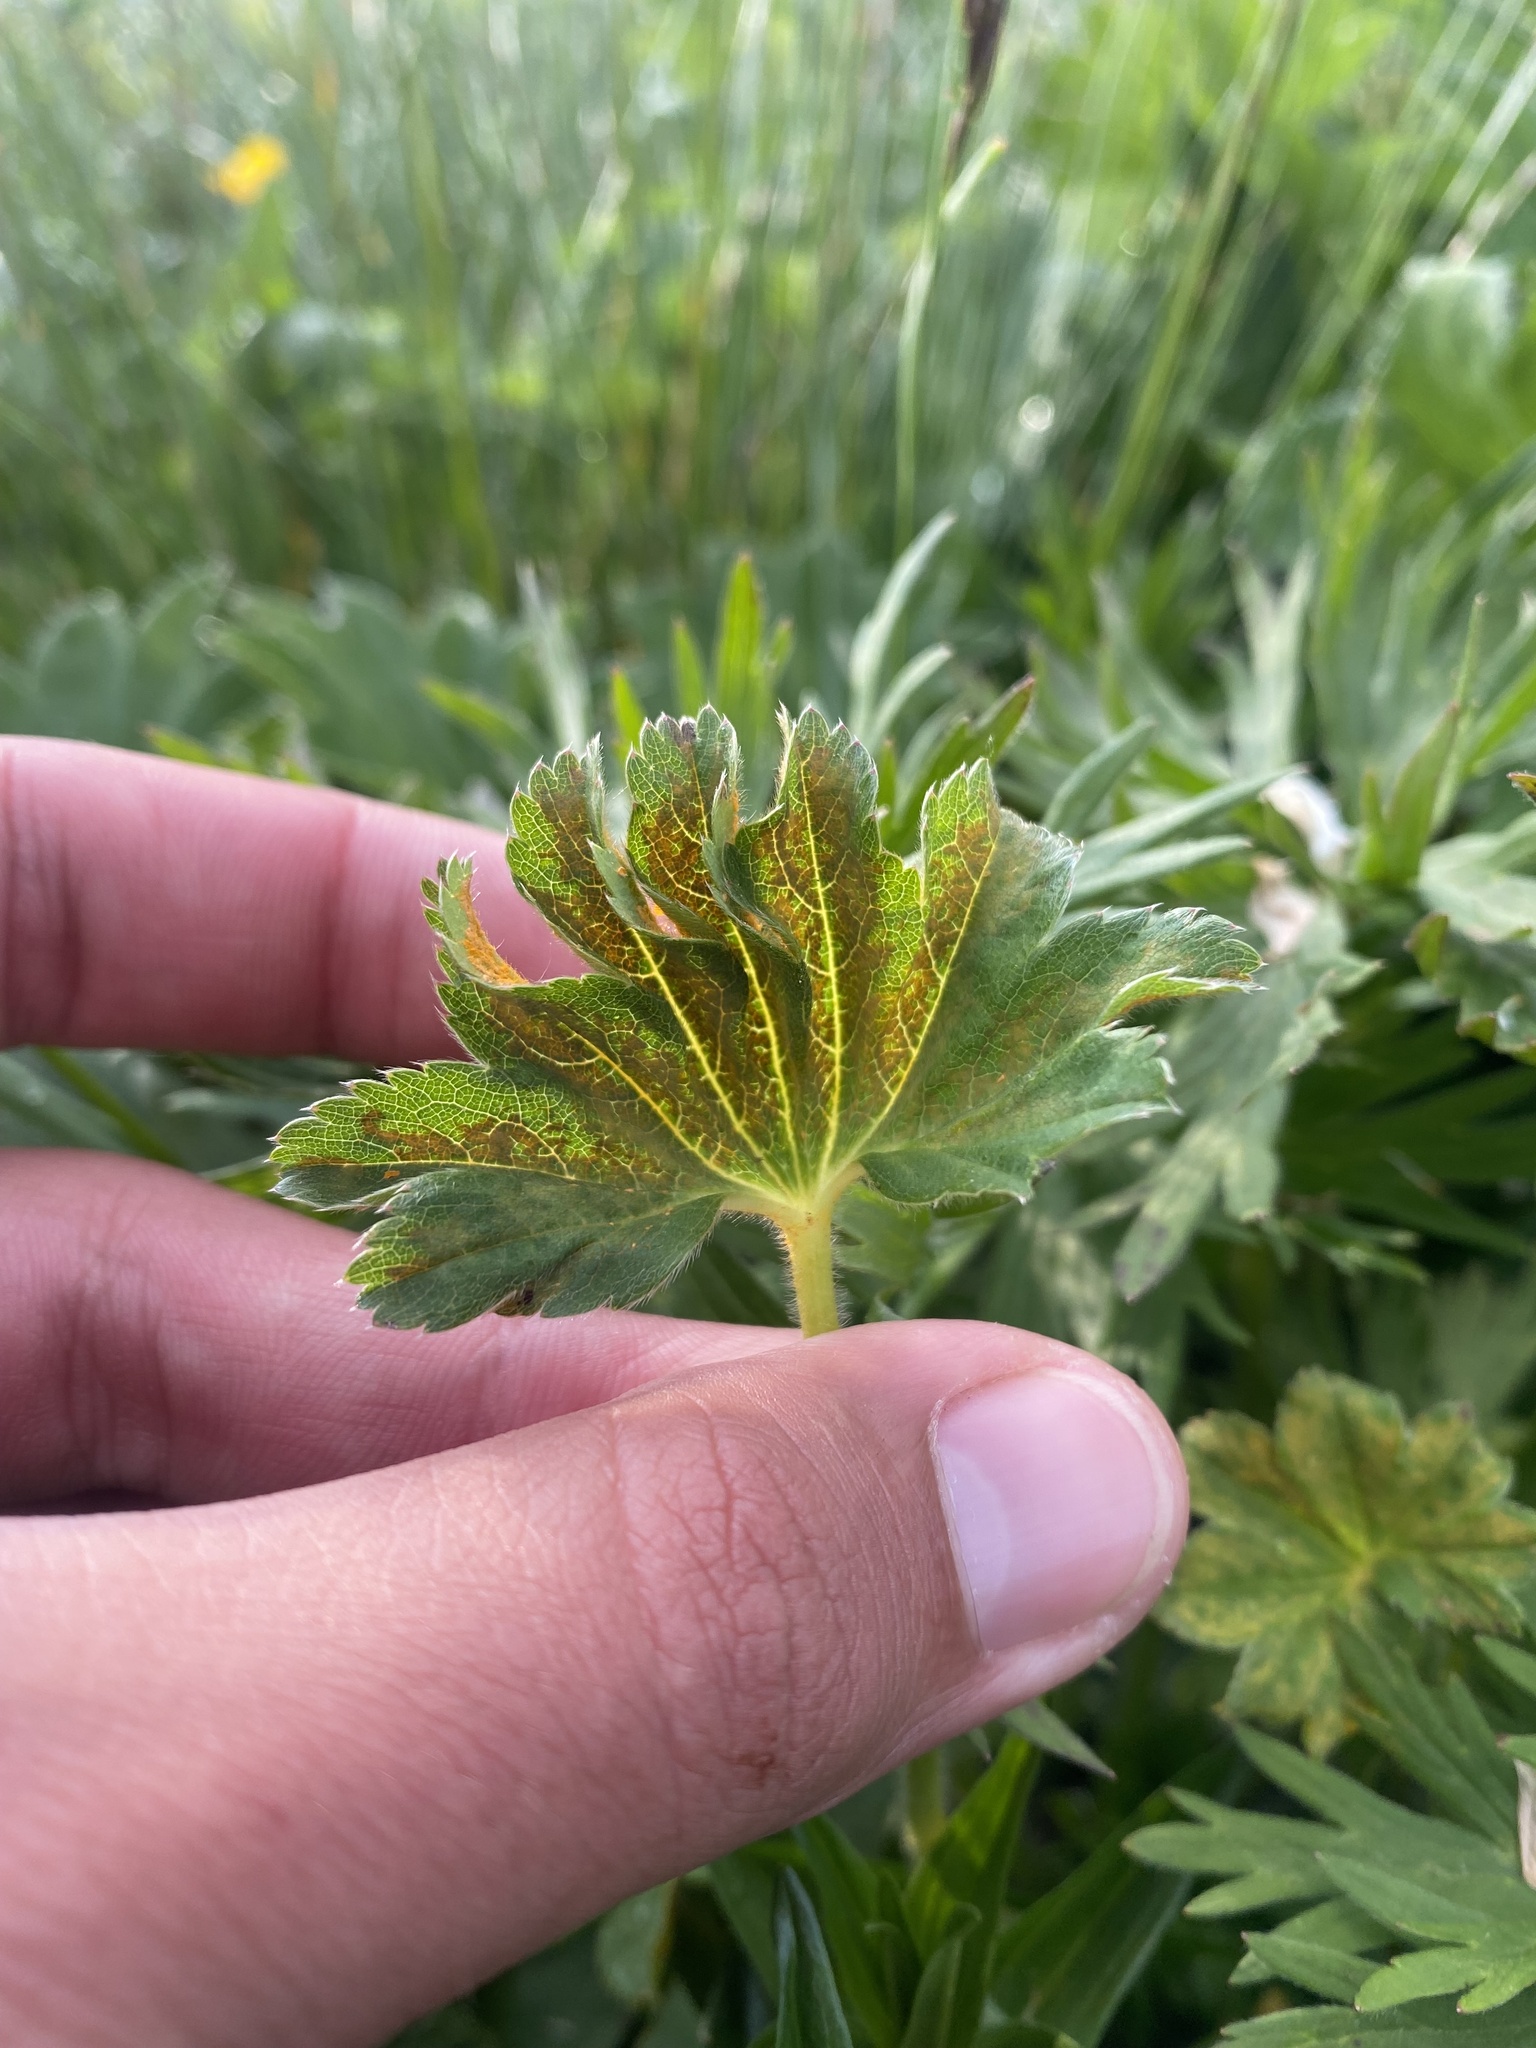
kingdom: Fungi
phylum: Basidiomycota
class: Pucciniomycetes
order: Pucciniales
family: Phragmidiaceae
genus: Trachyspora
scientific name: Trachyspora alchemillae
